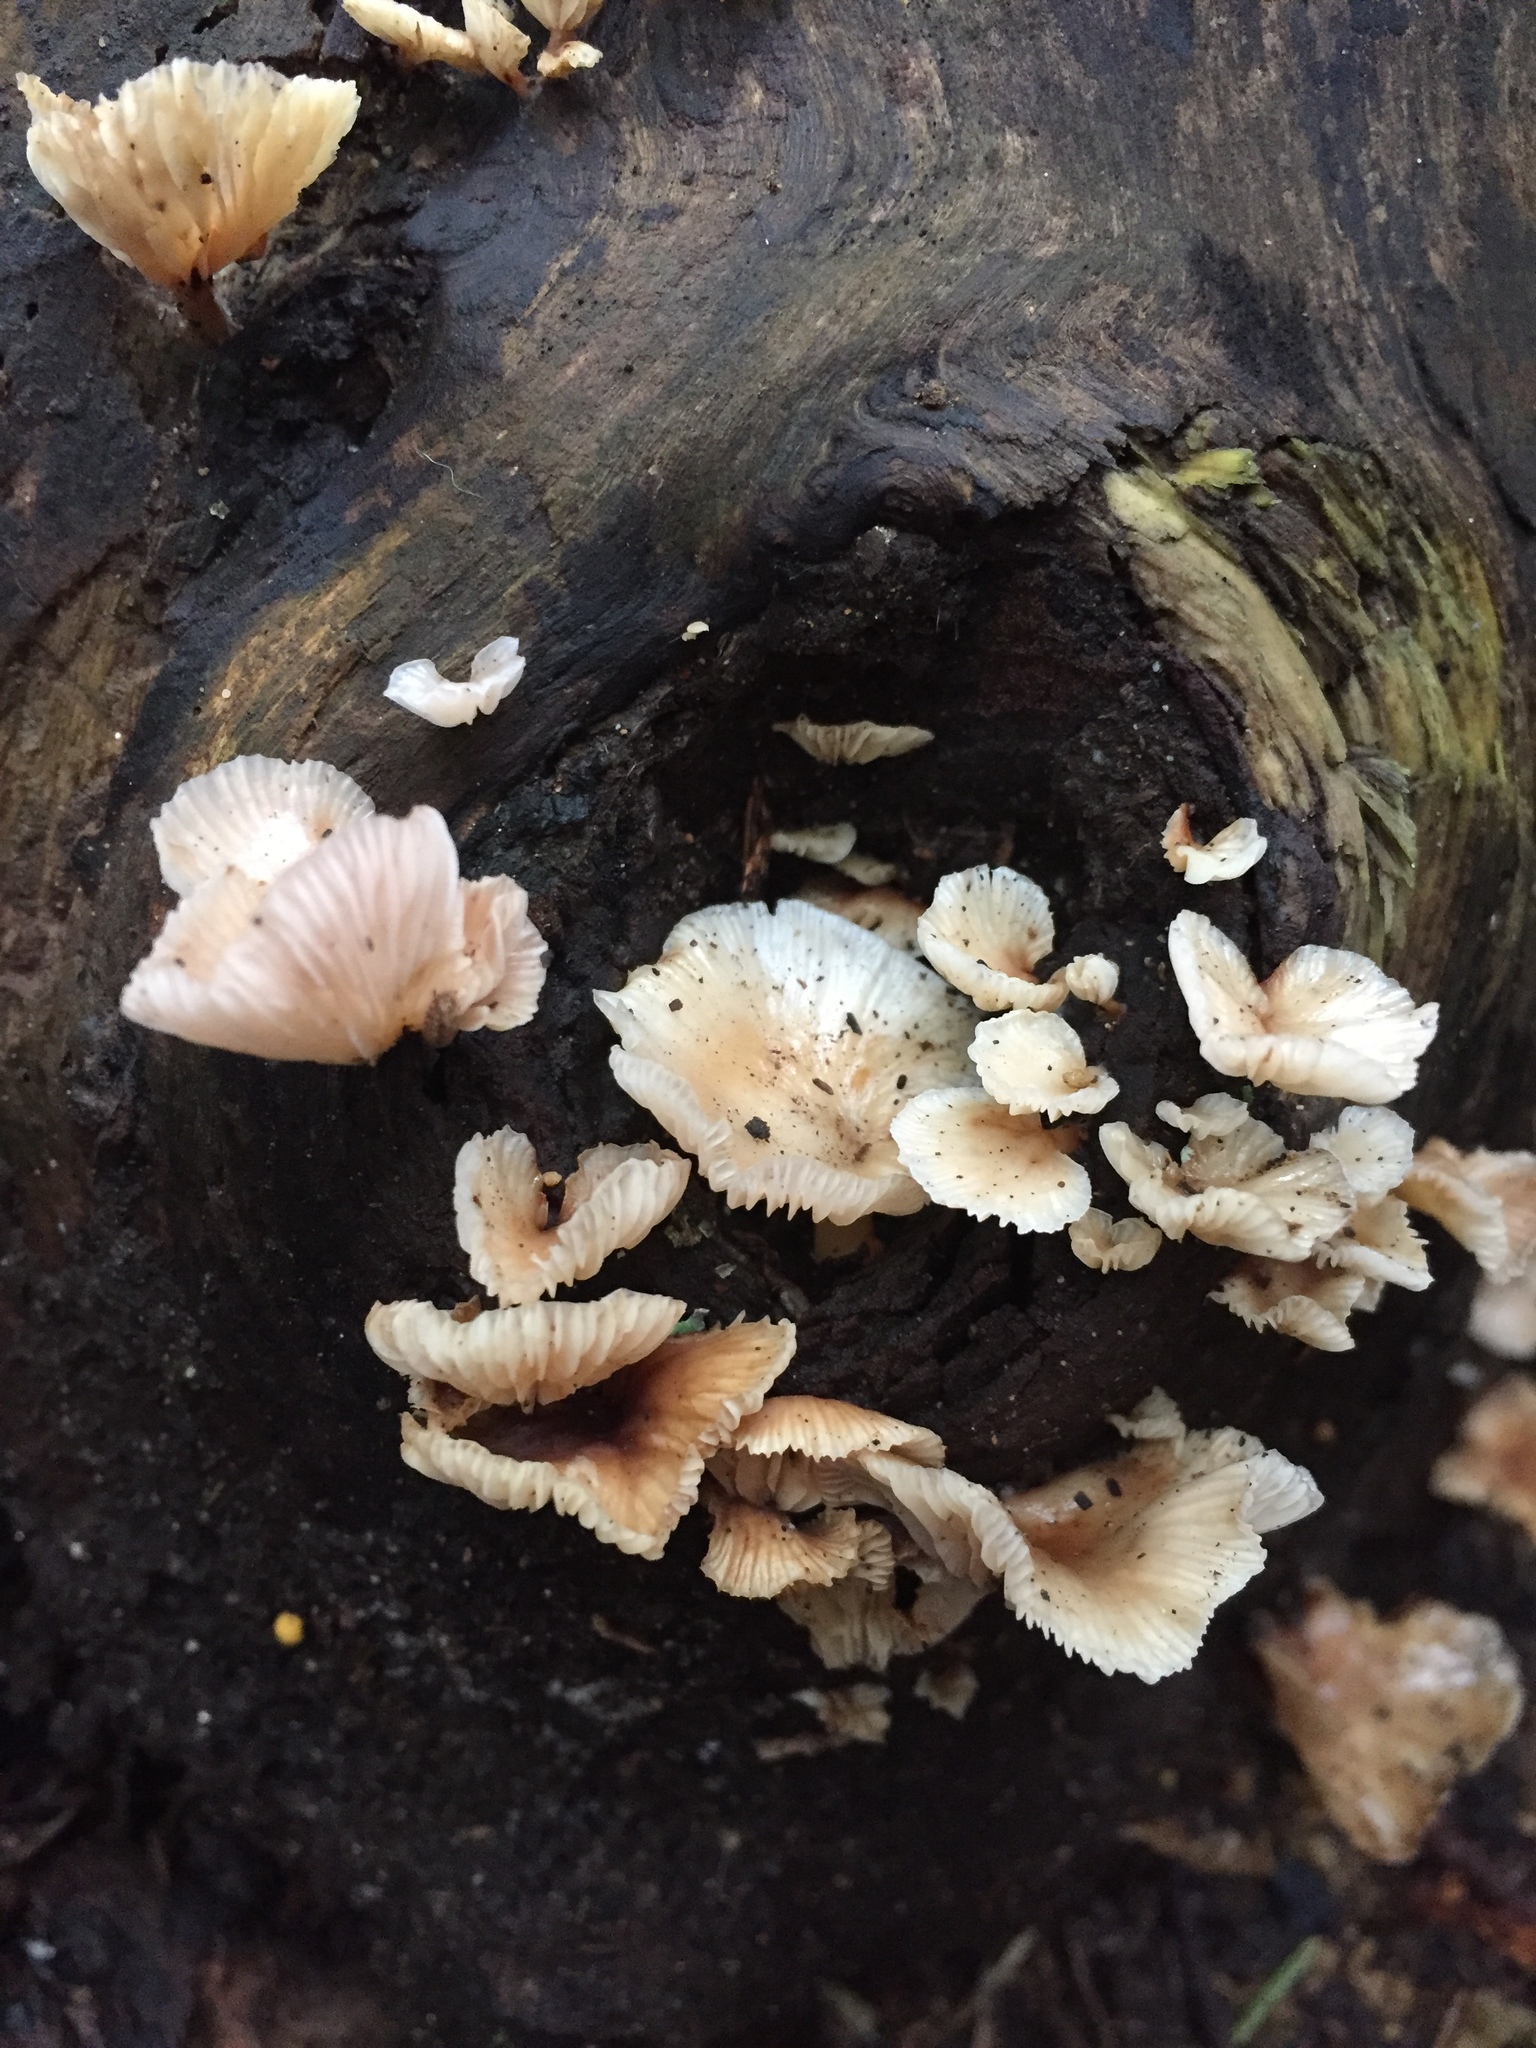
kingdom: Fungi
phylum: Basidiomycota
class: Agaricomycetes
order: Agaricales
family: Mycenaceae
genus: Panellus
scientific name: Panellus longinquus
